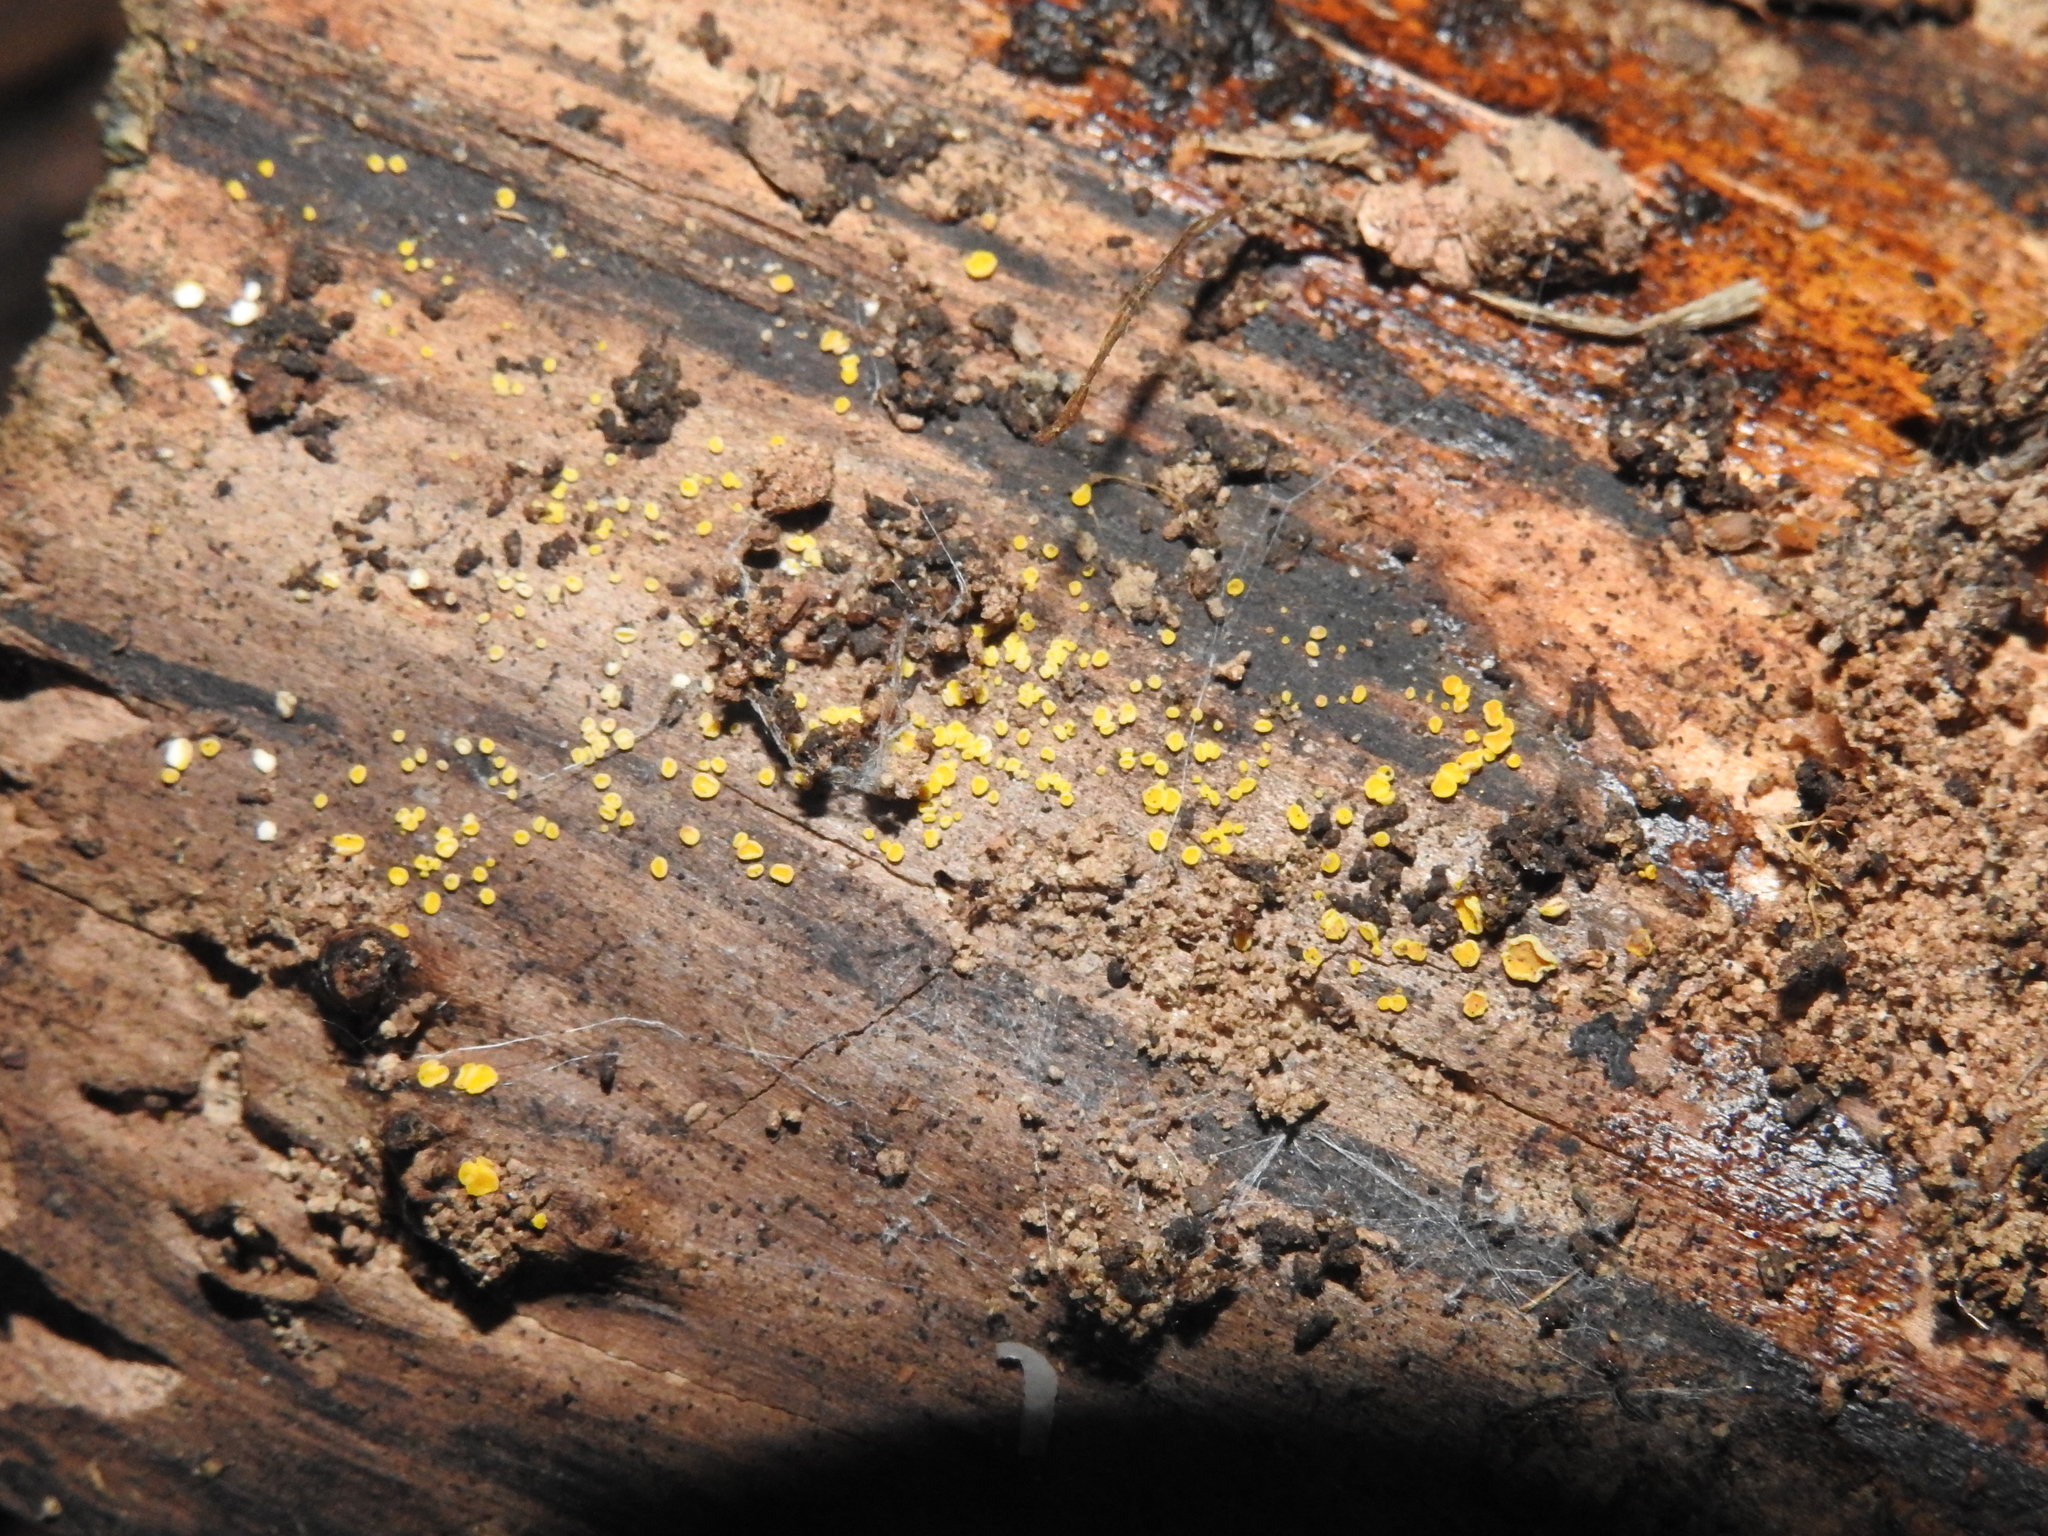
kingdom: Fungi
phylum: Ascomycota
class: Leotiomycetes
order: Helotiales
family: Pezizellaceae
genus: Calycina
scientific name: Calycina citrina
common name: Yellow fairy cups
